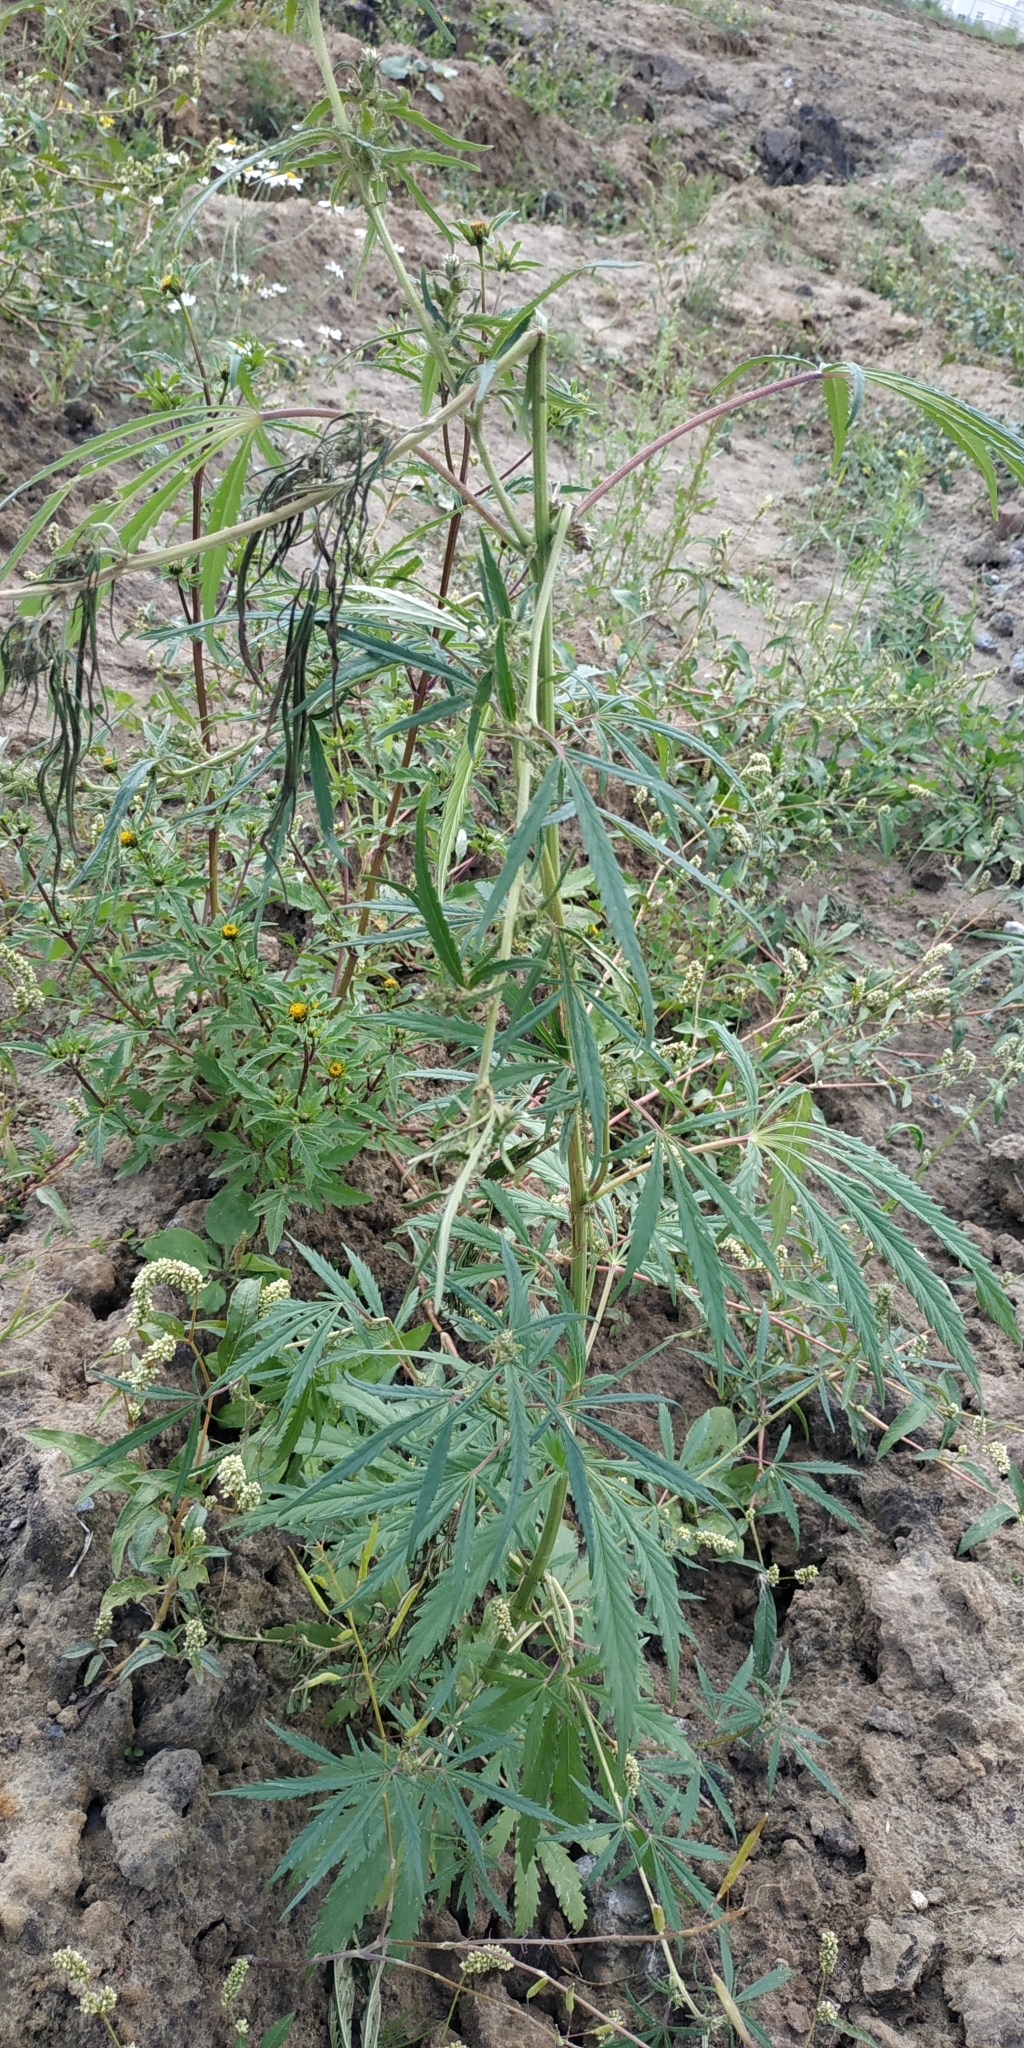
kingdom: Plantae
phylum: Tracheophyta
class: Magnoliopsida
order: Rosales
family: Cannabaceae
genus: Cannabis
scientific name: Cannabis sativa
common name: Hemp
